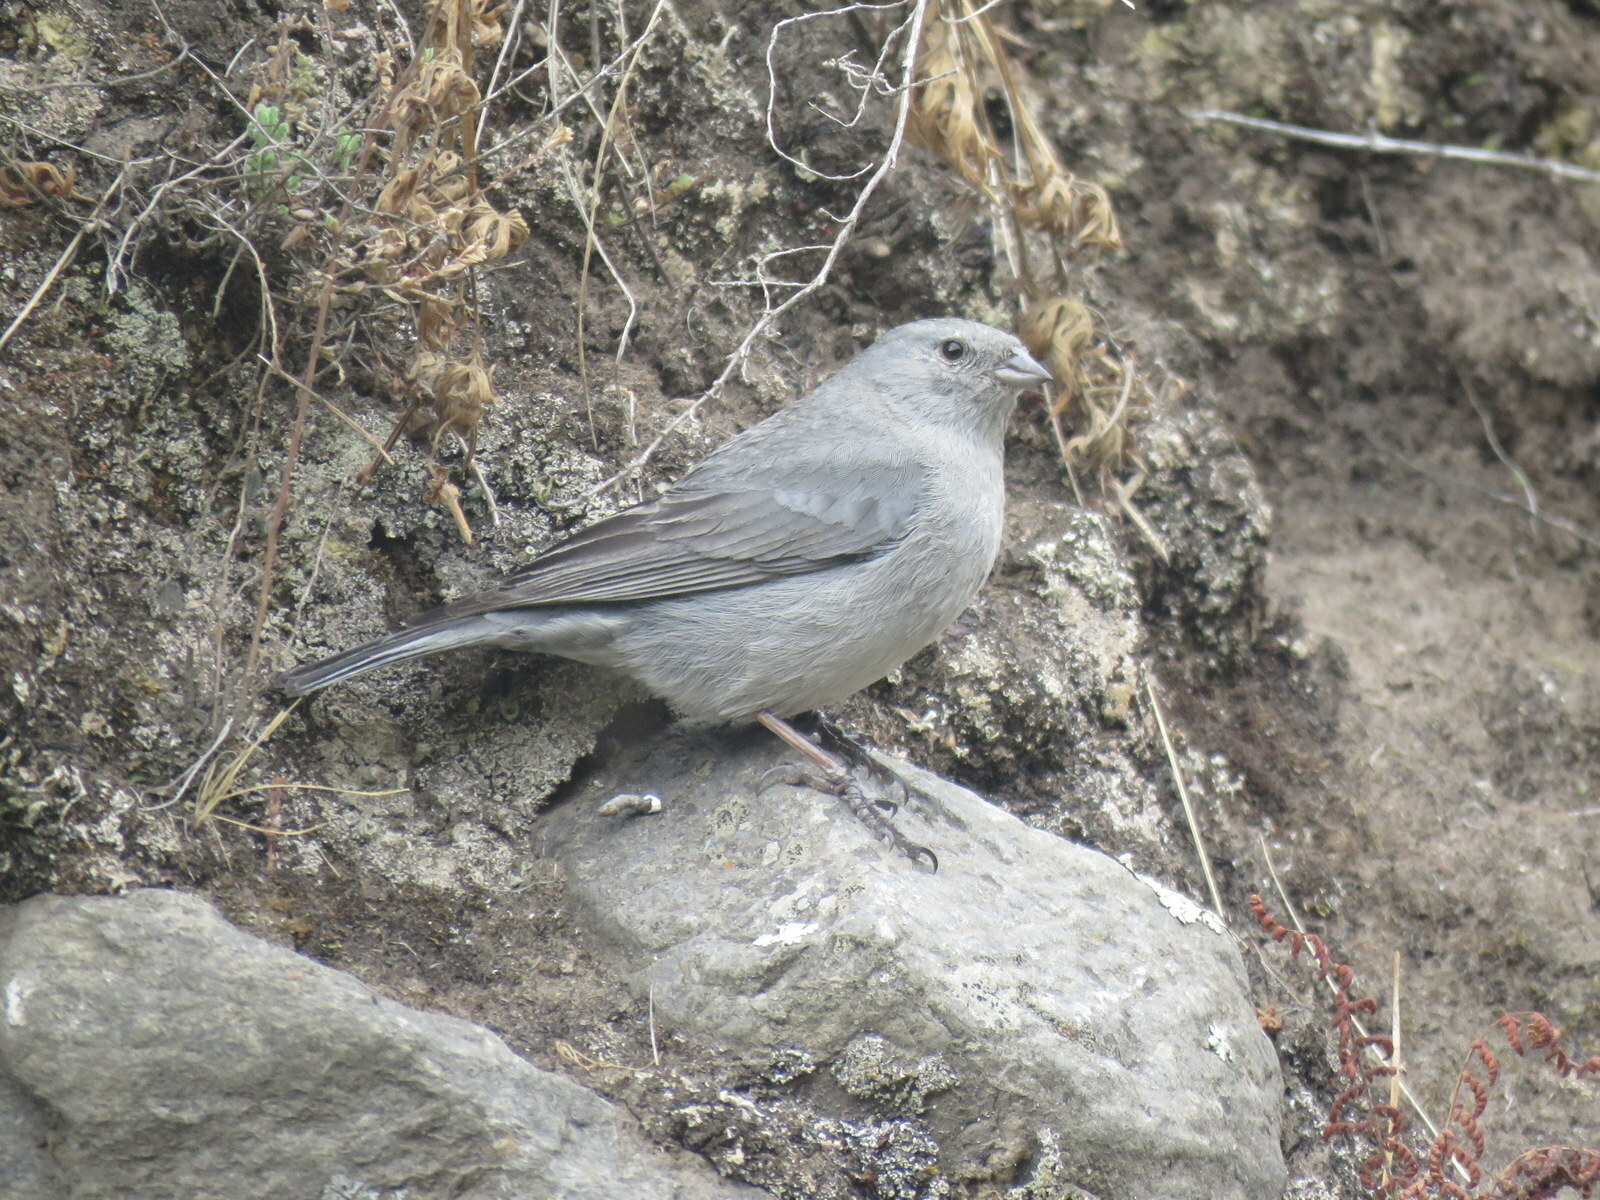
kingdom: Animalia
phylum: Chordata
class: Aves
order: Passeriformes
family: Thraupidae
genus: Geospizopsis
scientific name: Geospizopsis unicolor
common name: Plumbeous sierra-finch
